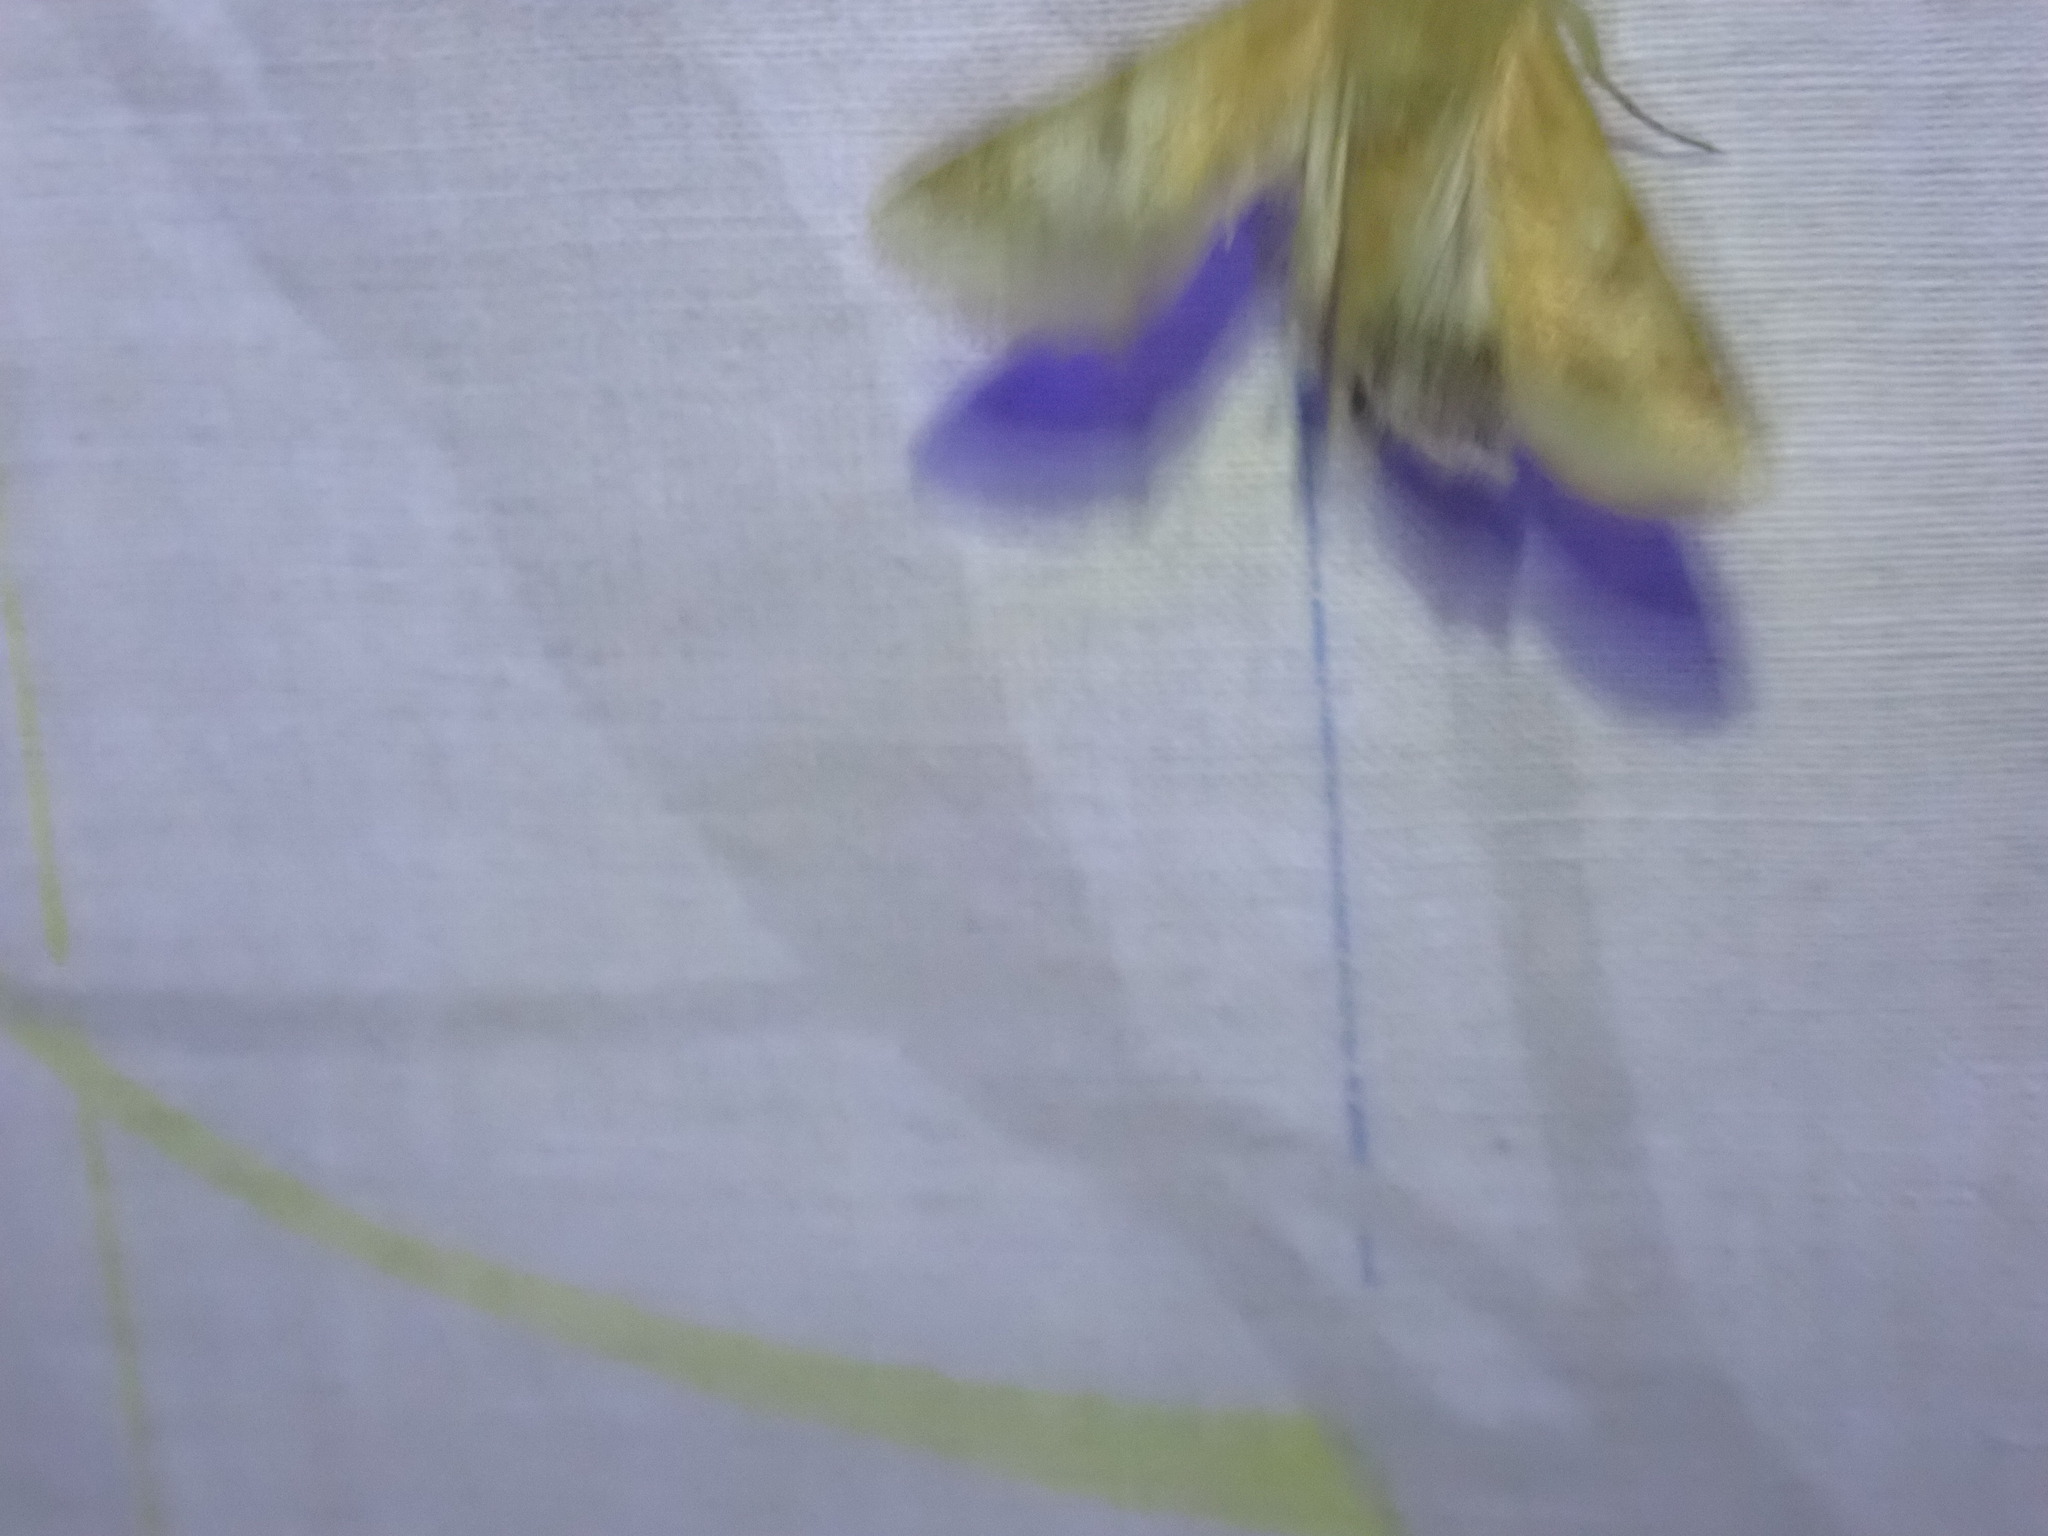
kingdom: Animalia
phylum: Arthropoda
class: Insecta
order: Lepidoptera
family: Noctuidae
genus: Helicoverpa
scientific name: Helicoverpa armigera
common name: Cotton bollworm
